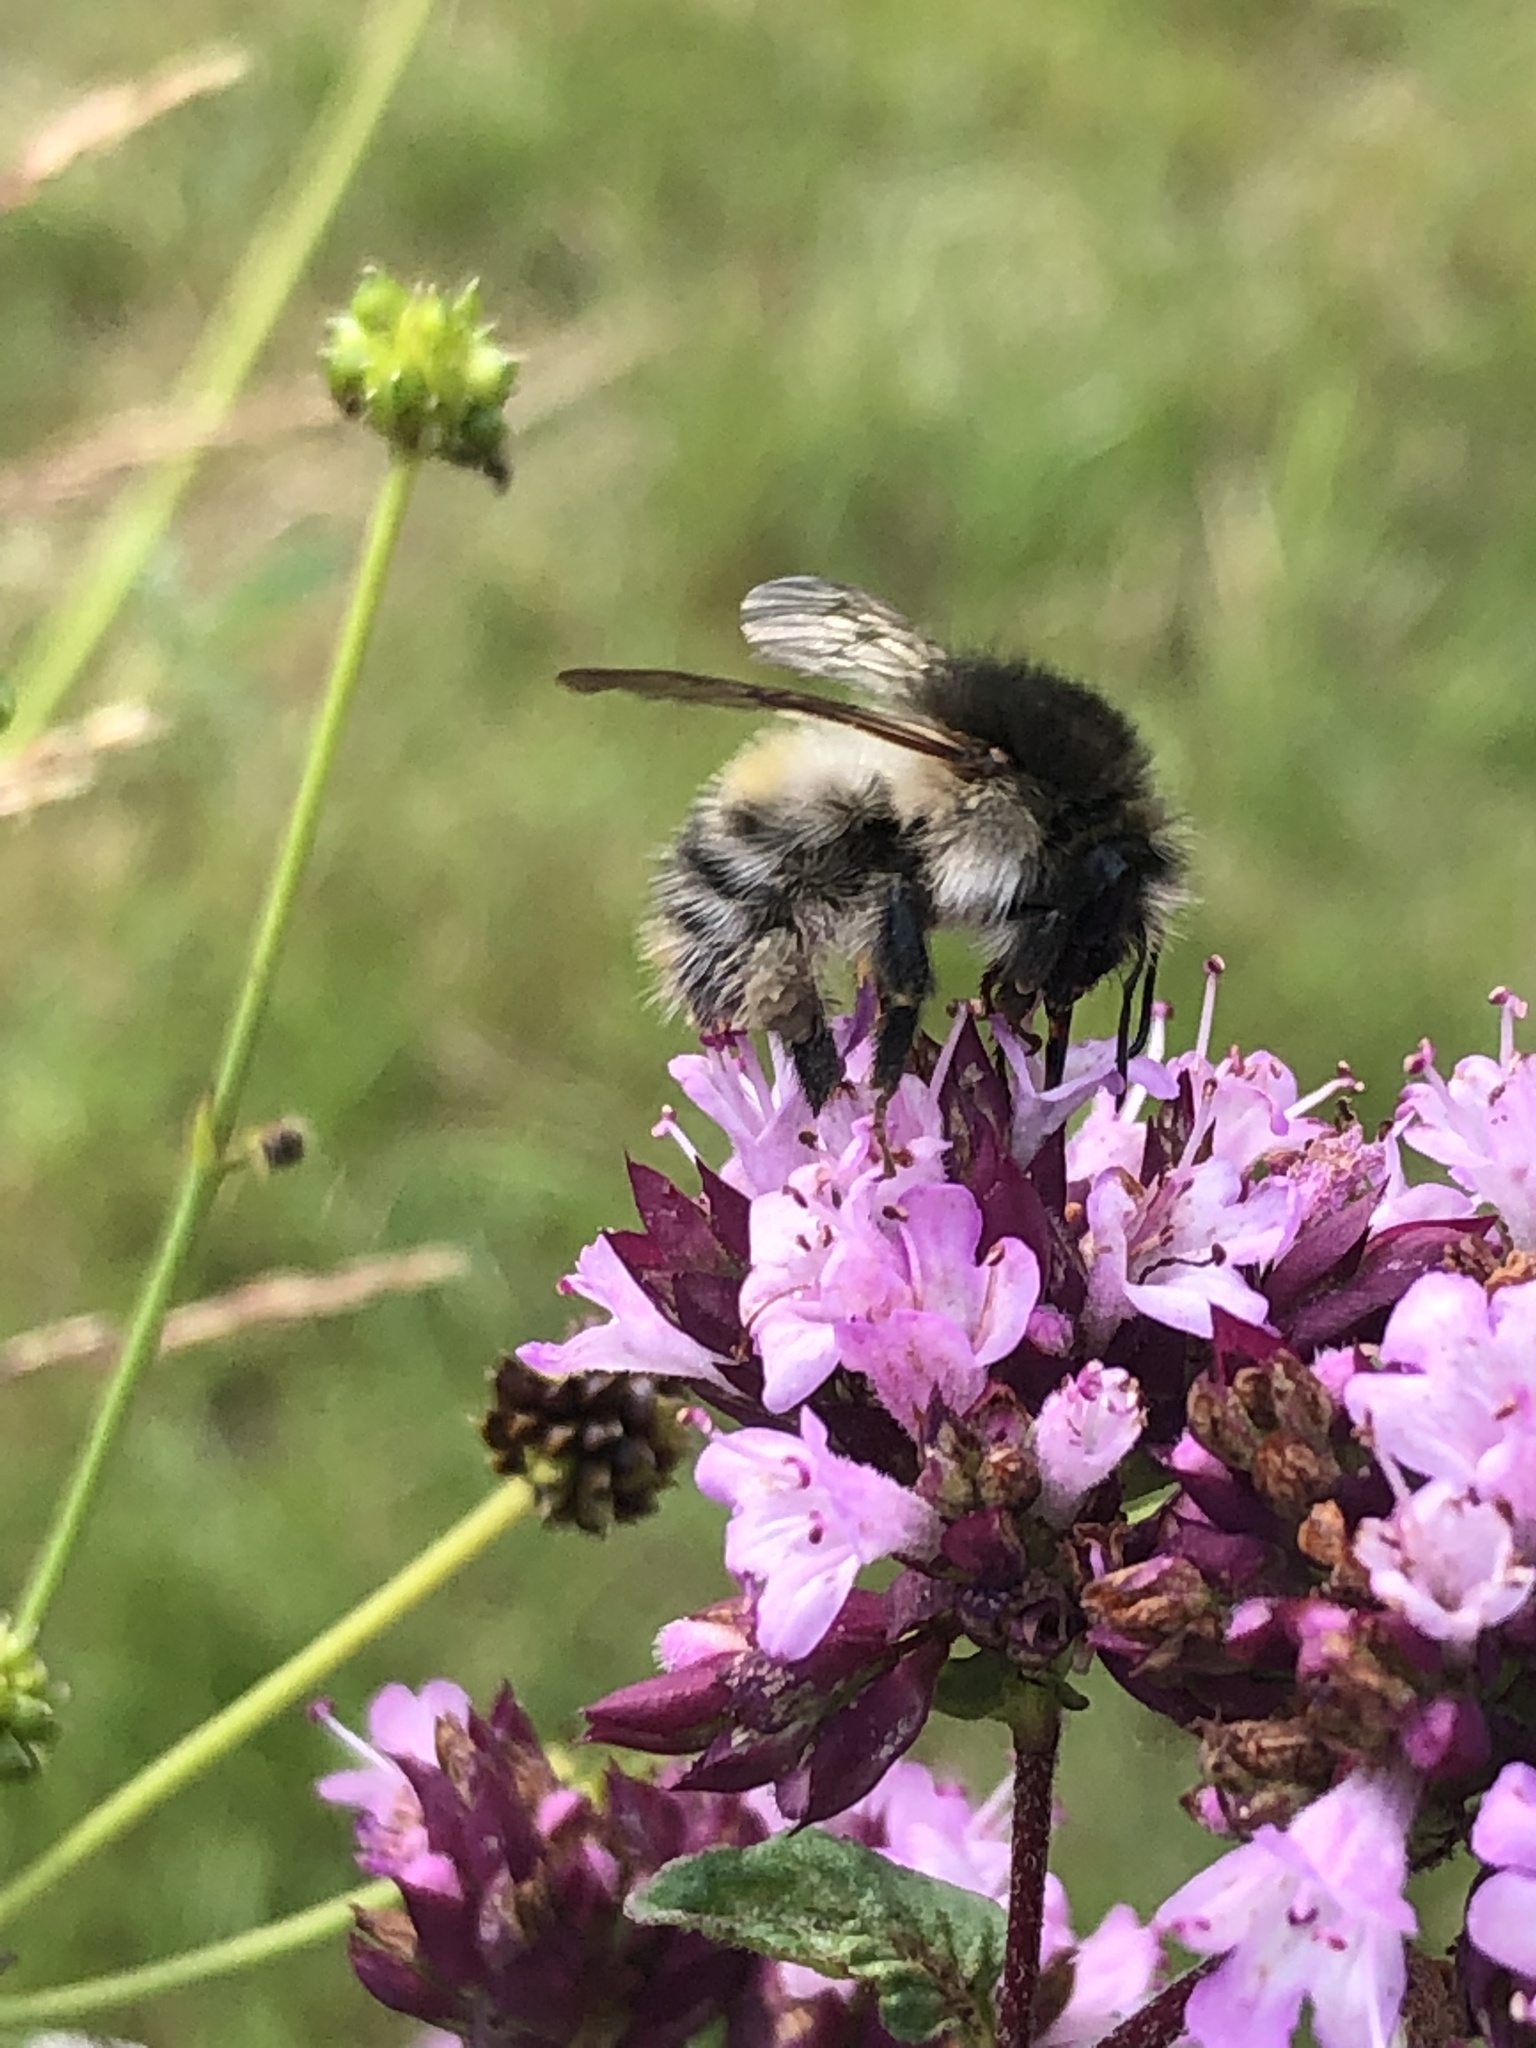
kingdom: Animalia
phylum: Arthropoda
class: Insecta
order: Hymenoptera
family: Apidae
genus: Bombus
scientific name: Bombus pascuorum
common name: Common carder bee
